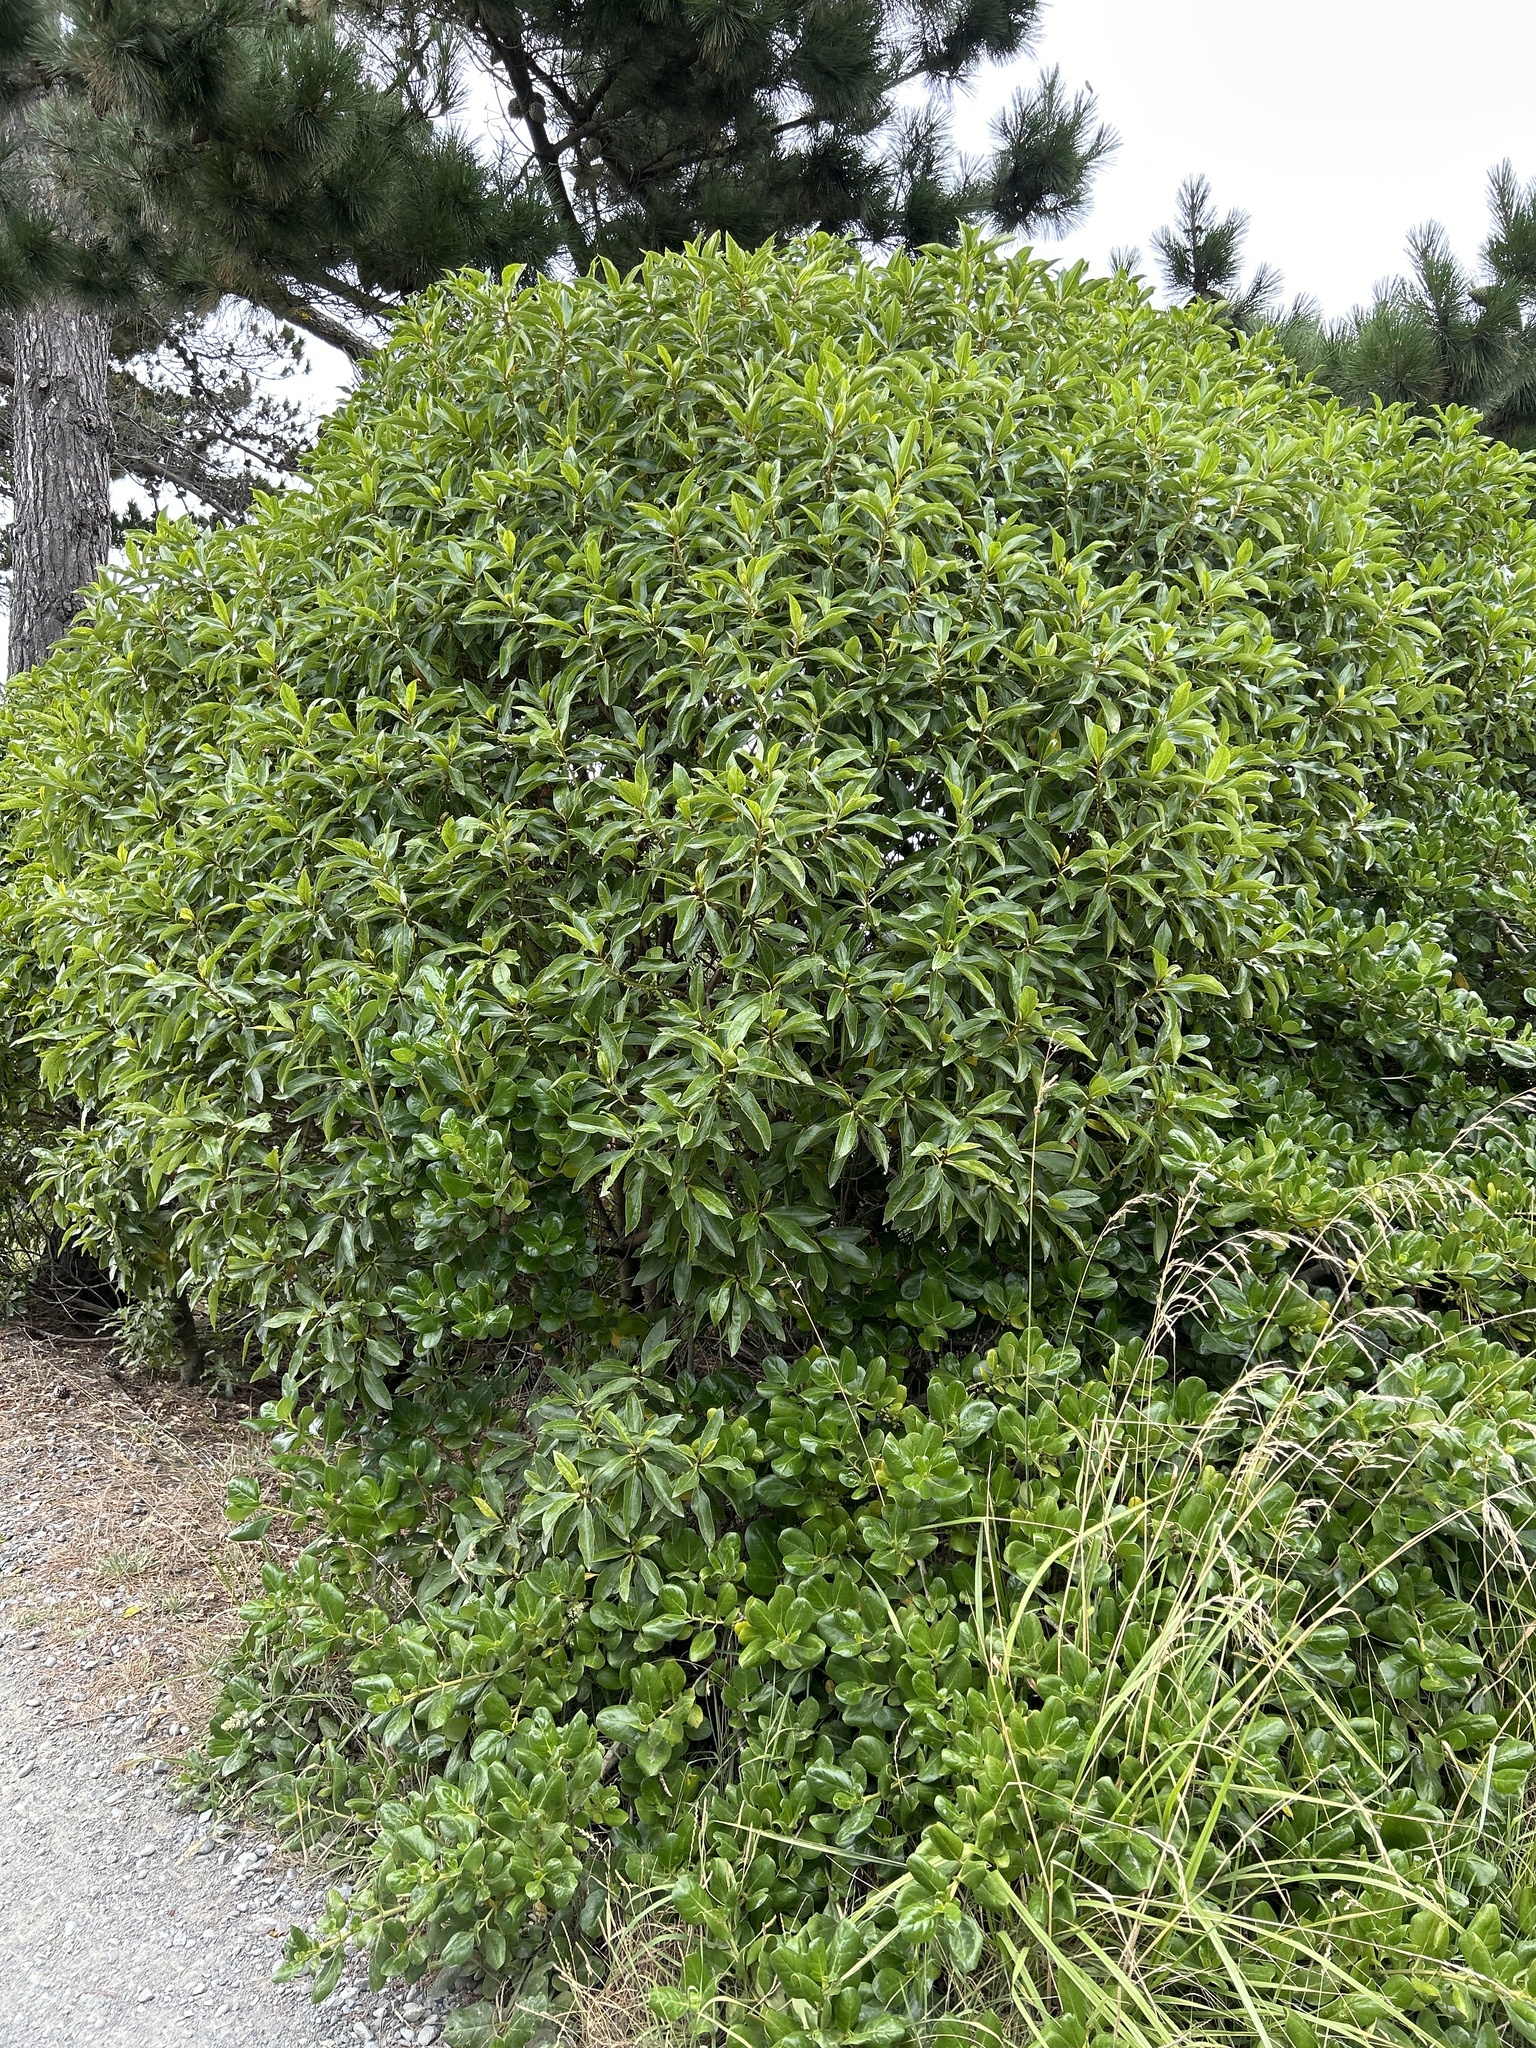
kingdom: Plantae
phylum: Tracheophyta
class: Magnoliopsida
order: Lamiales
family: Scrophulariaceae
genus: Myoporum
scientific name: Myoporum laetum
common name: Ngaio tree
